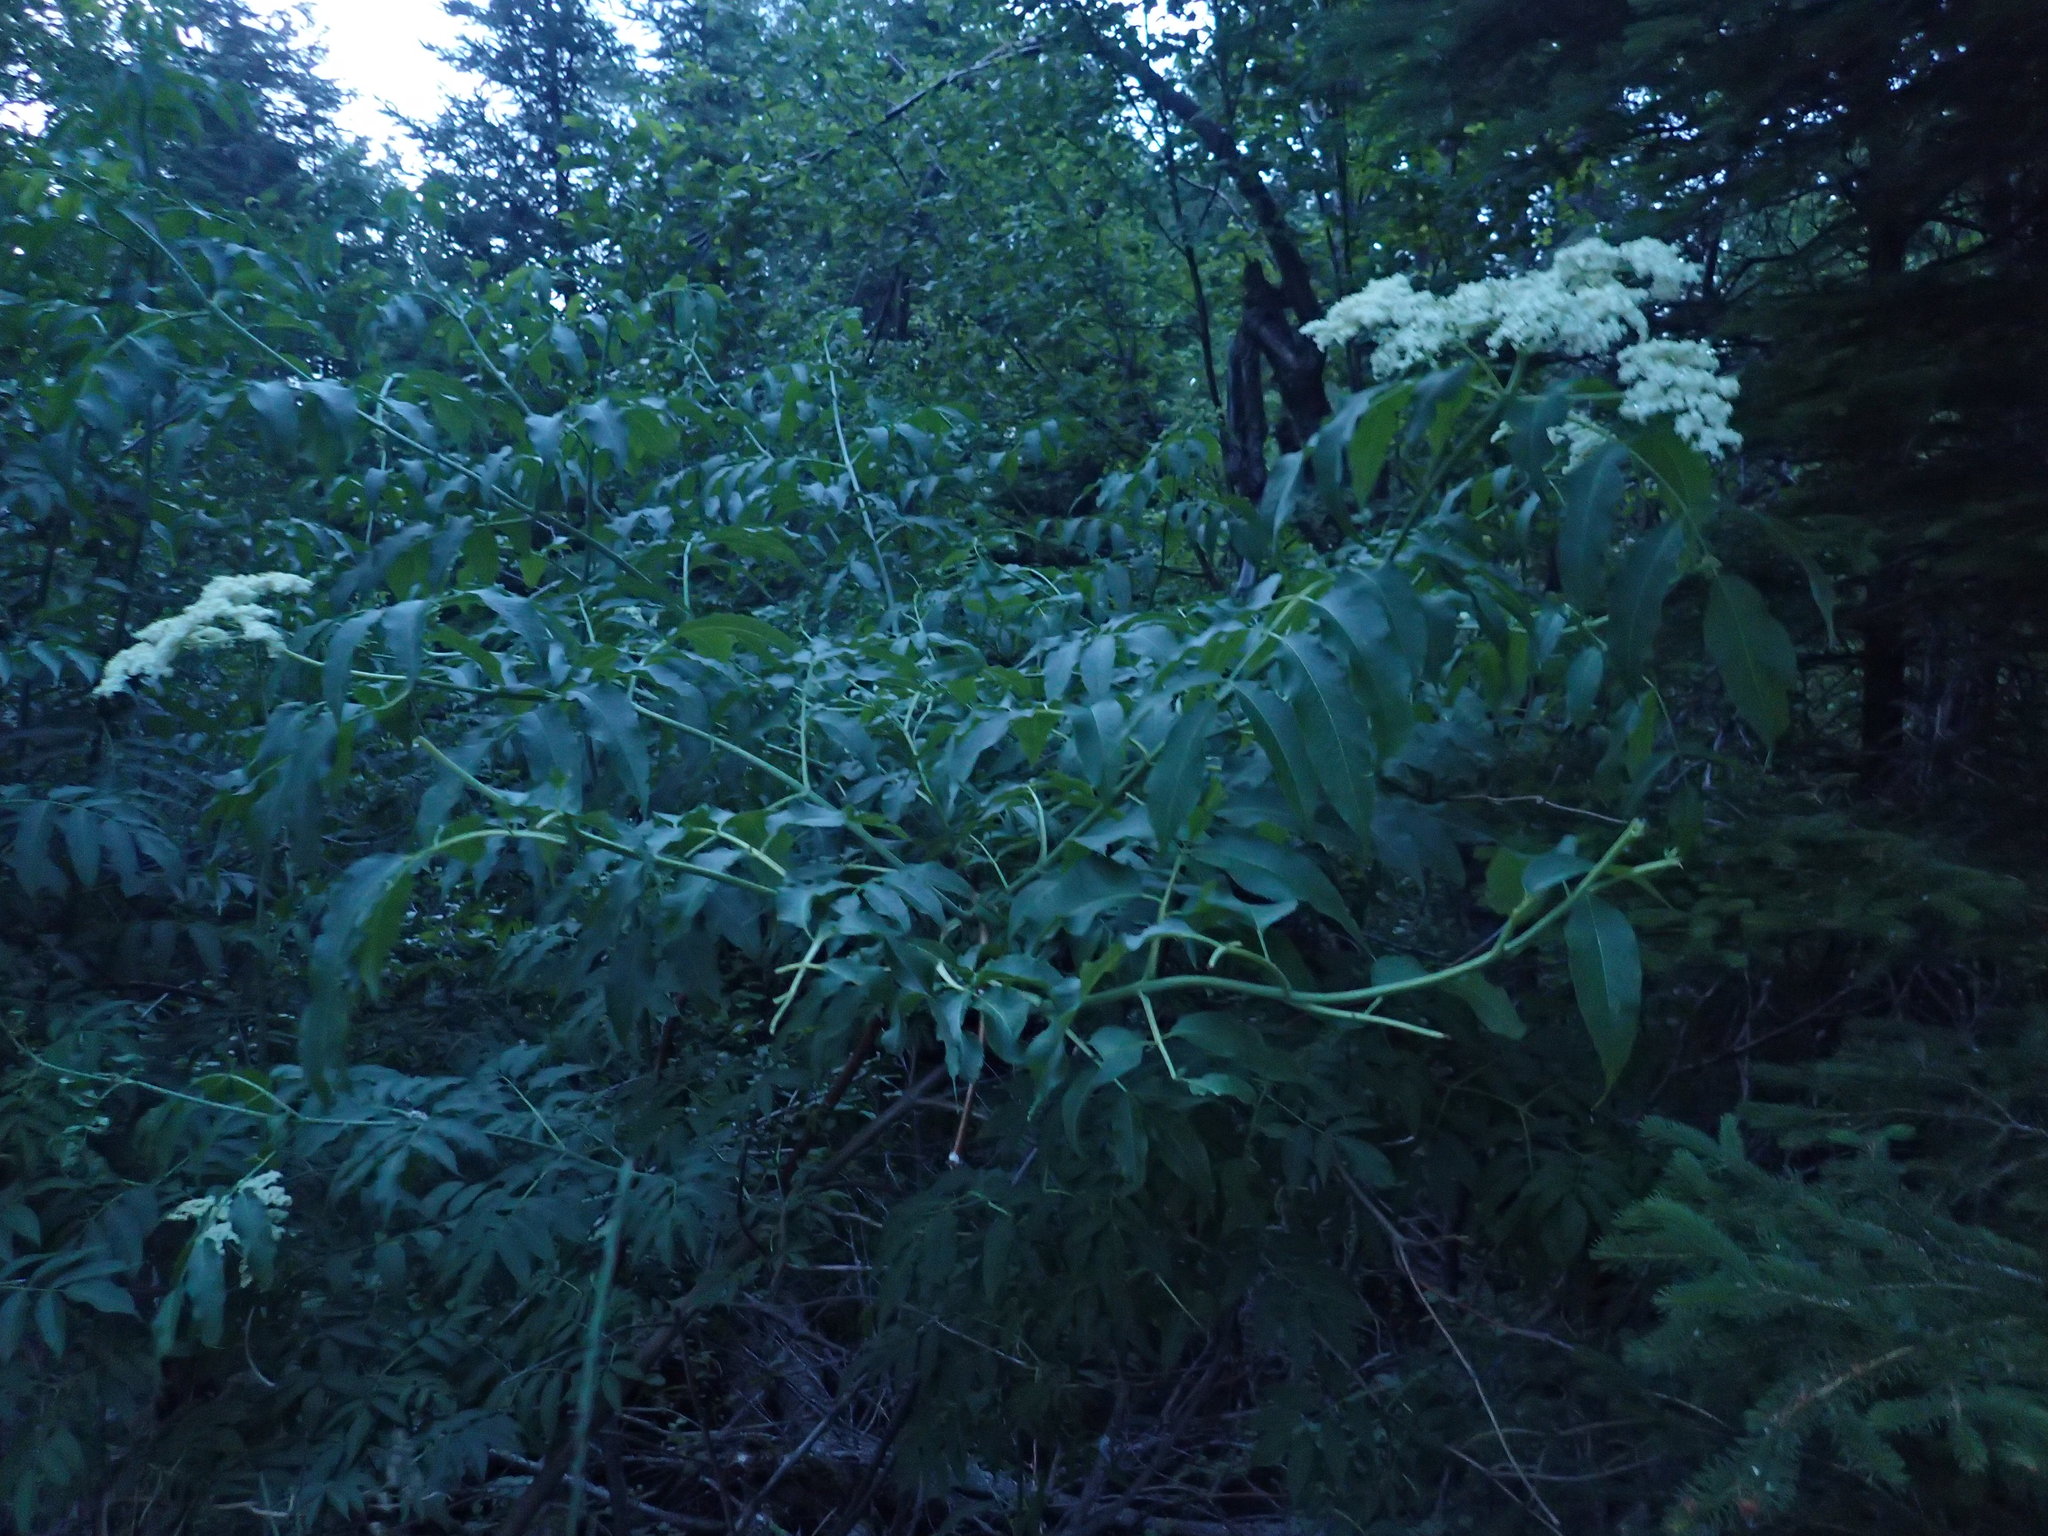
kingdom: Plantae
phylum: Tracheophyta
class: Magnoliopsida
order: Dipsacales
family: Viburnaceae
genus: Sambucus
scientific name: Sambucus cerulea
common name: Blue elder
